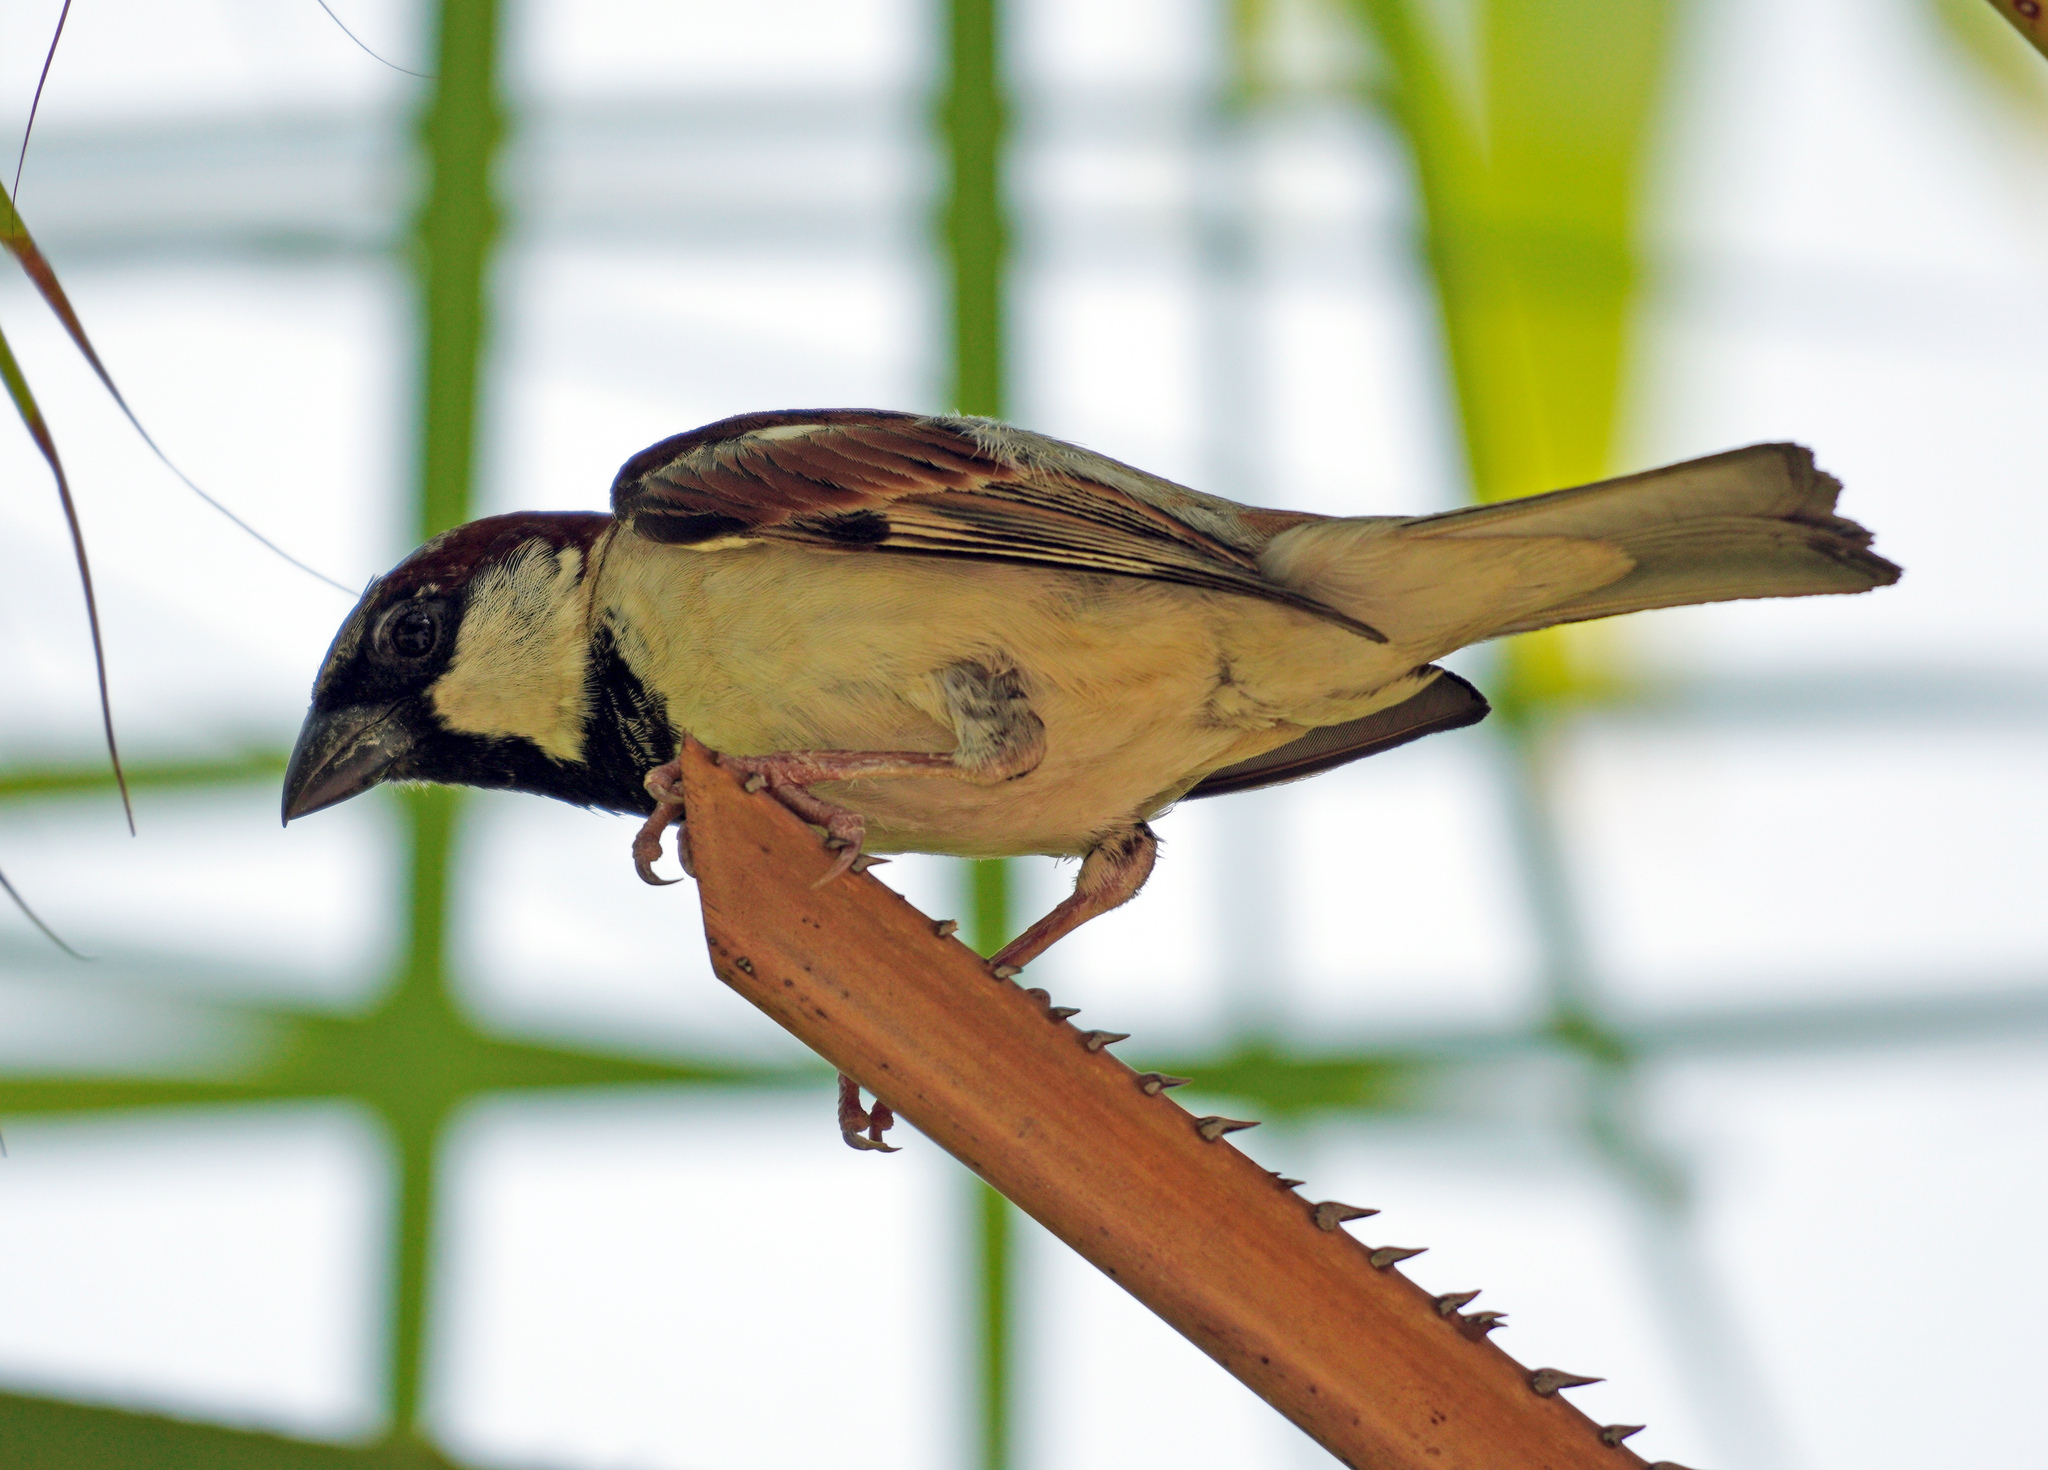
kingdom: Animalia
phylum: Chordata
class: Aves
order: Passeriformes
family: Passeridae
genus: Passer
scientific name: Passer domesticus
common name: House sparrow
